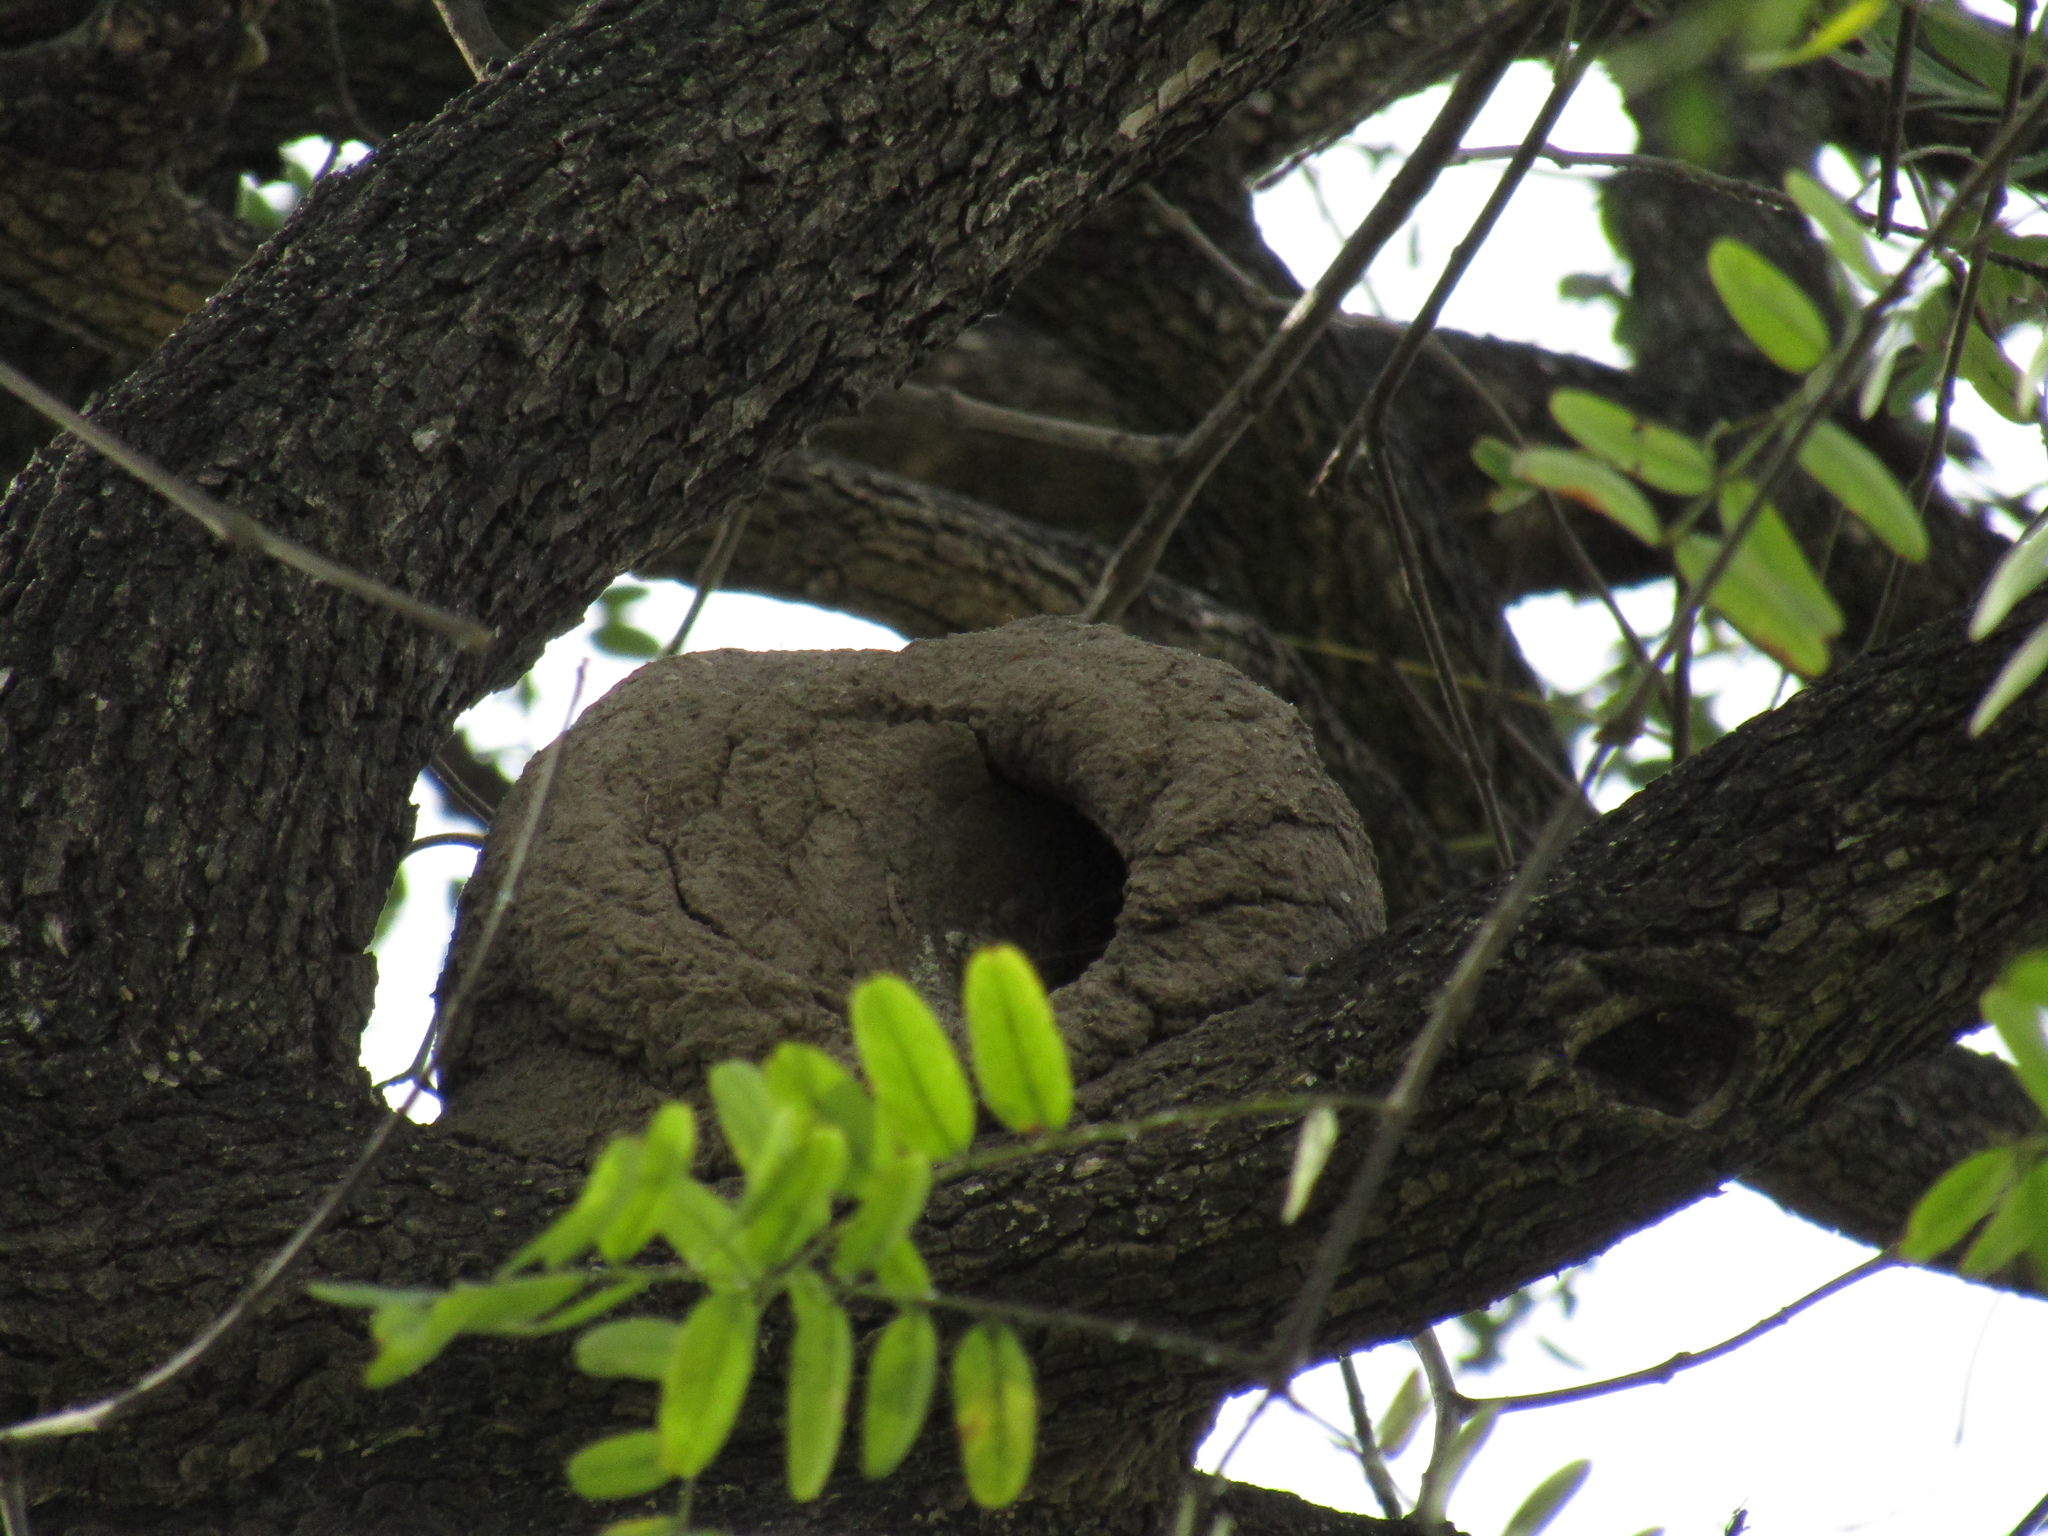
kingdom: Animalia
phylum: Chordata
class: Aves
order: Passeriformes
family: Furnariidae
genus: Furnarius
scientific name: Furnarius rufus
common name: Rufous hornero
